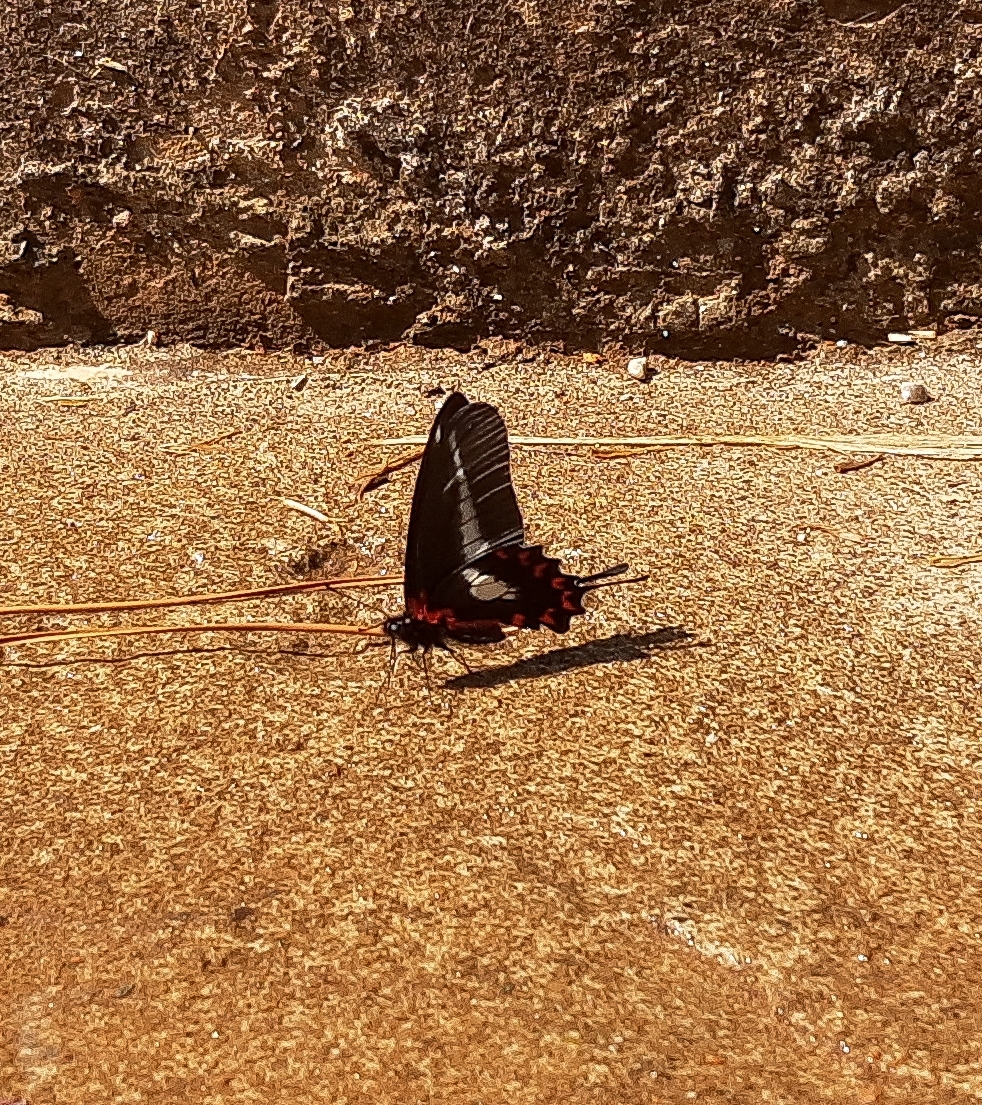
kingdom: Animalia
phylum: Arthropoda
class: Insecta
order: Lepidoptera
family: Papilionidae
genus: Mimoides
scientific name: Mimoides lysithous
